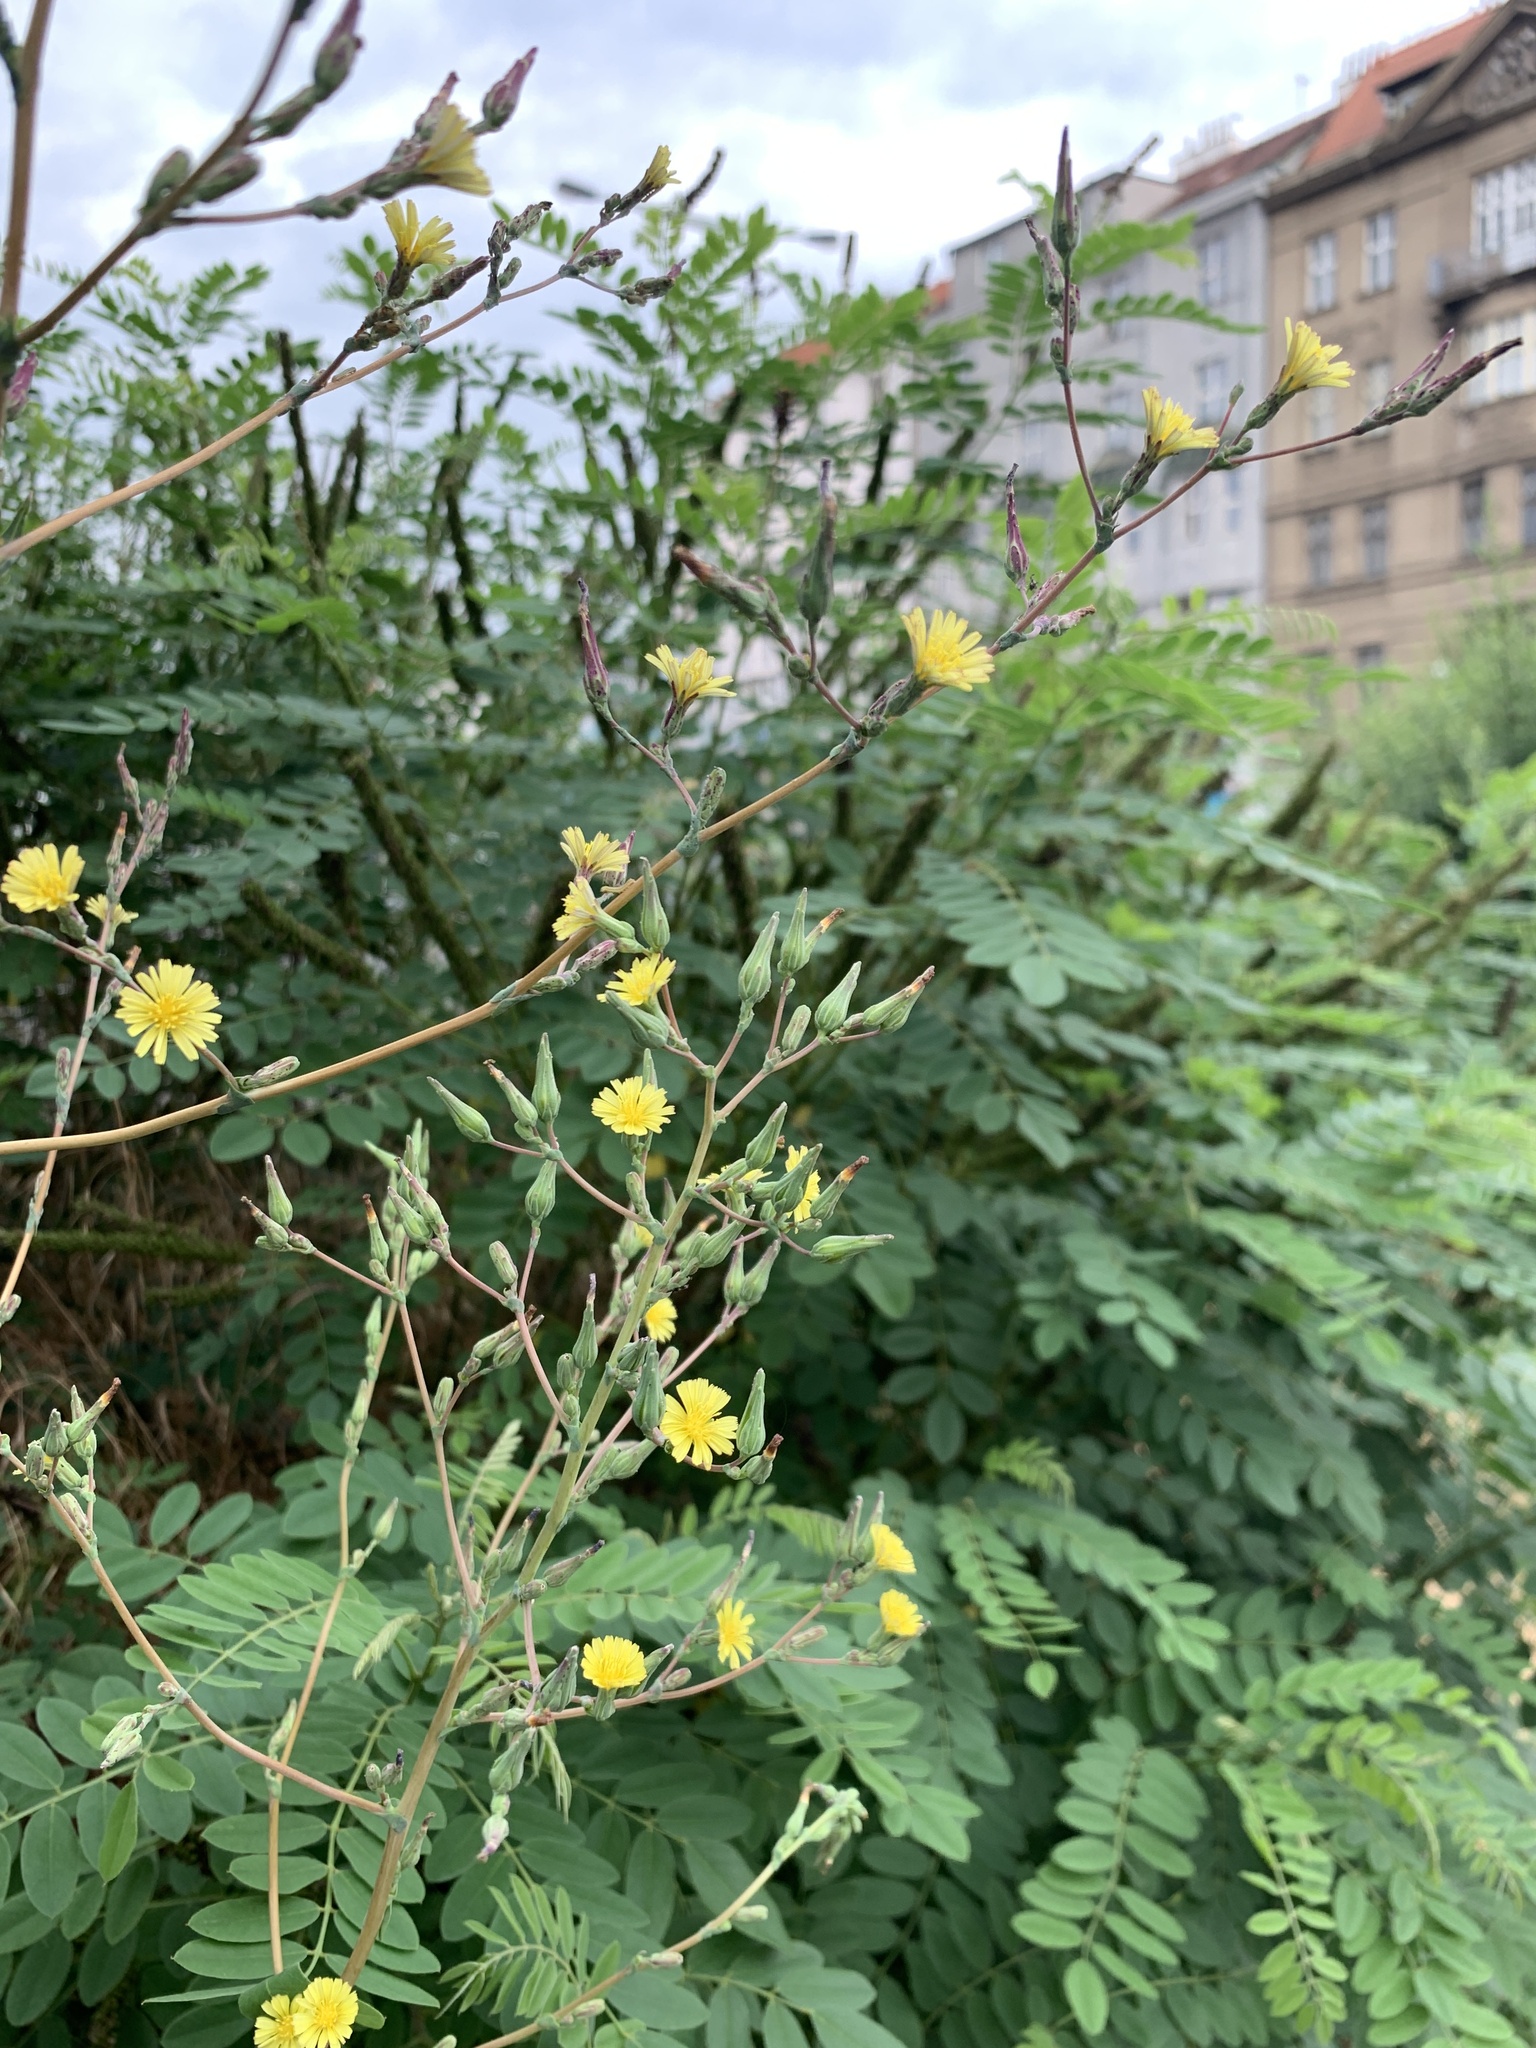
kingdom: Plantae
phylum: Tracheophyta
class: Magnoliopsida
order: Asterales
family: Asteraceae
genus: Lactuca
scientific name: Lactuca serriola
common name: Prickly lettuce
